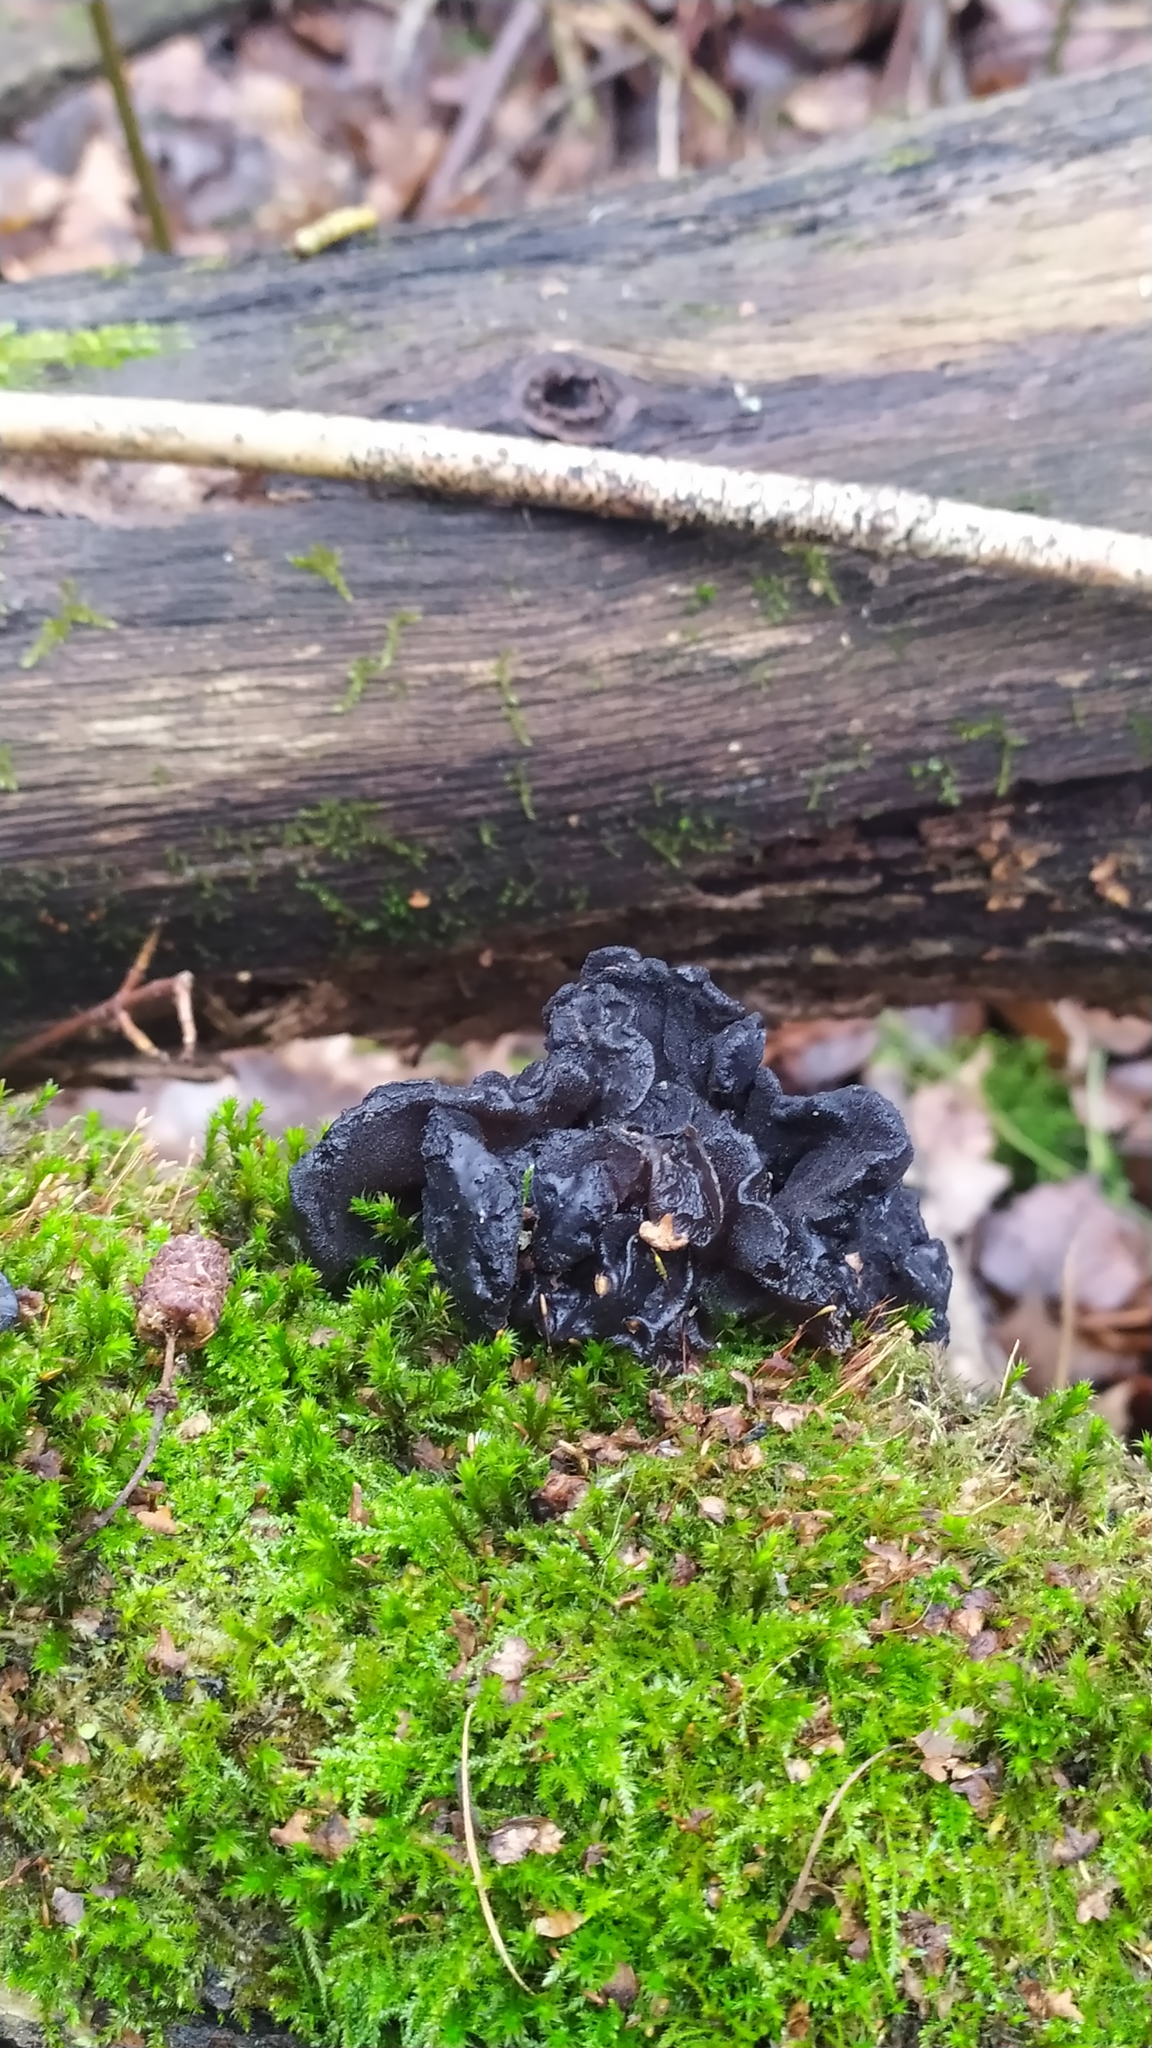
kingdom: Fungi
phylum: Basidiomycota
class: Agaricomycetes
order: Auriculariales
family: Auriculariaceae
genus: Exidia
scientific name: Exidia glandulosa
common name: Witches' butter
